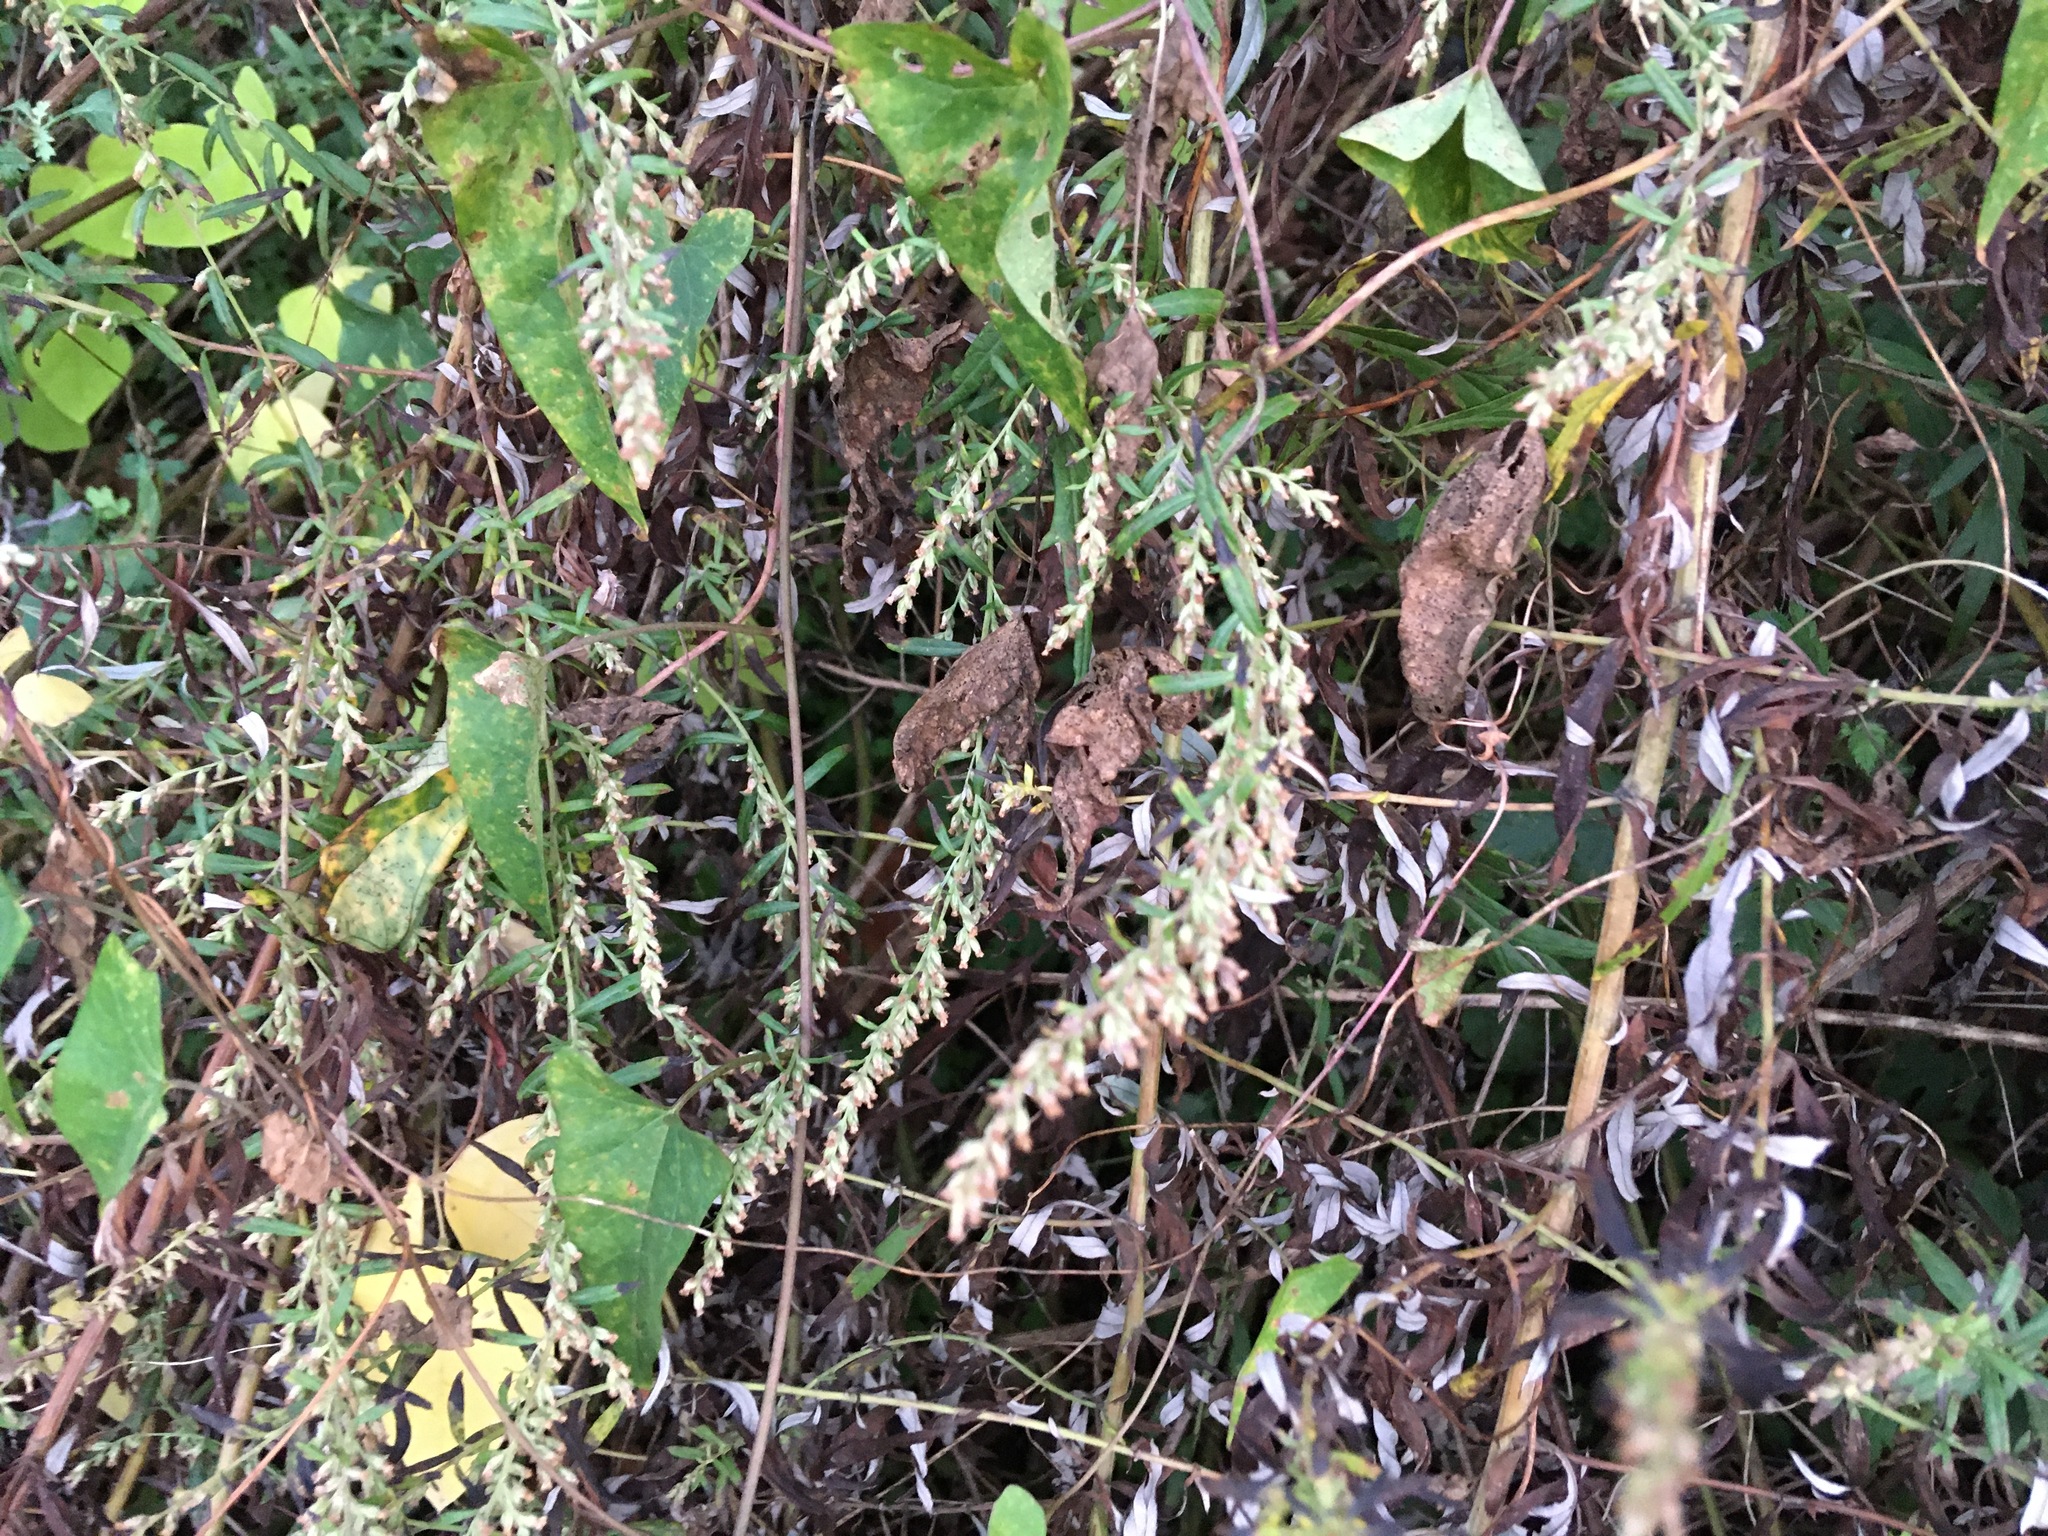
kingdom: Plantae
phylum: Tracheophyta
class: Magnoliopsida
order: Asterales
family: Asteraceae
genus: Artemisia
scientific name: Artemisia vulgaris
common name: Mugwort
